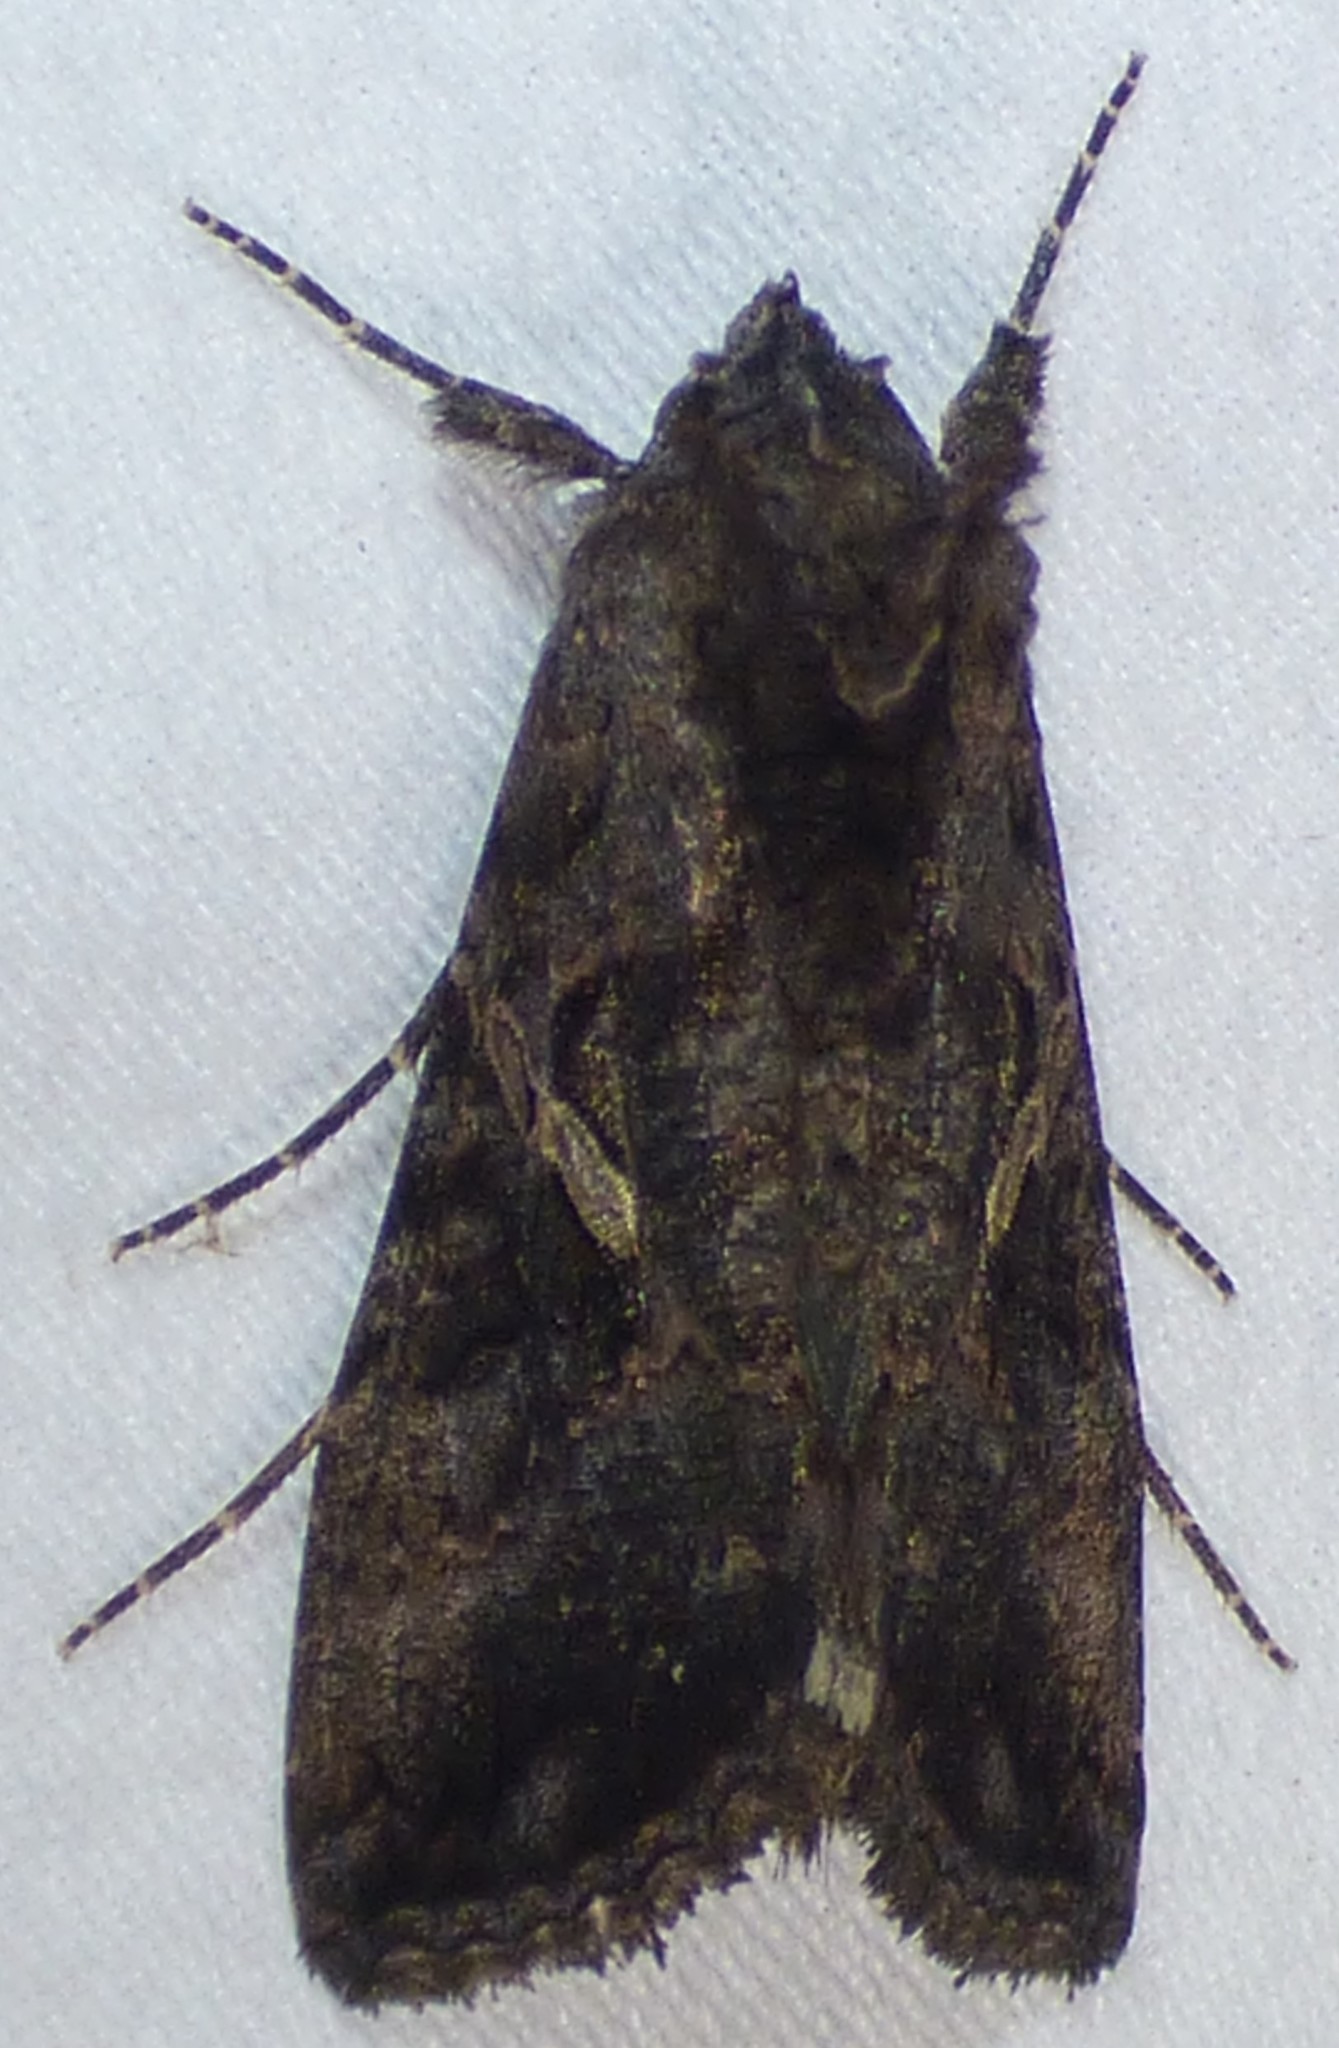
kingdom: Animalia
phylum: Arthropoda
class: Insecta
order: Lepidoptera
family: Noctuidae
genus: Ctenoplusia
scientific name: Ctenoplusia oxygramma
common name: Sharp-stigma looper moth
